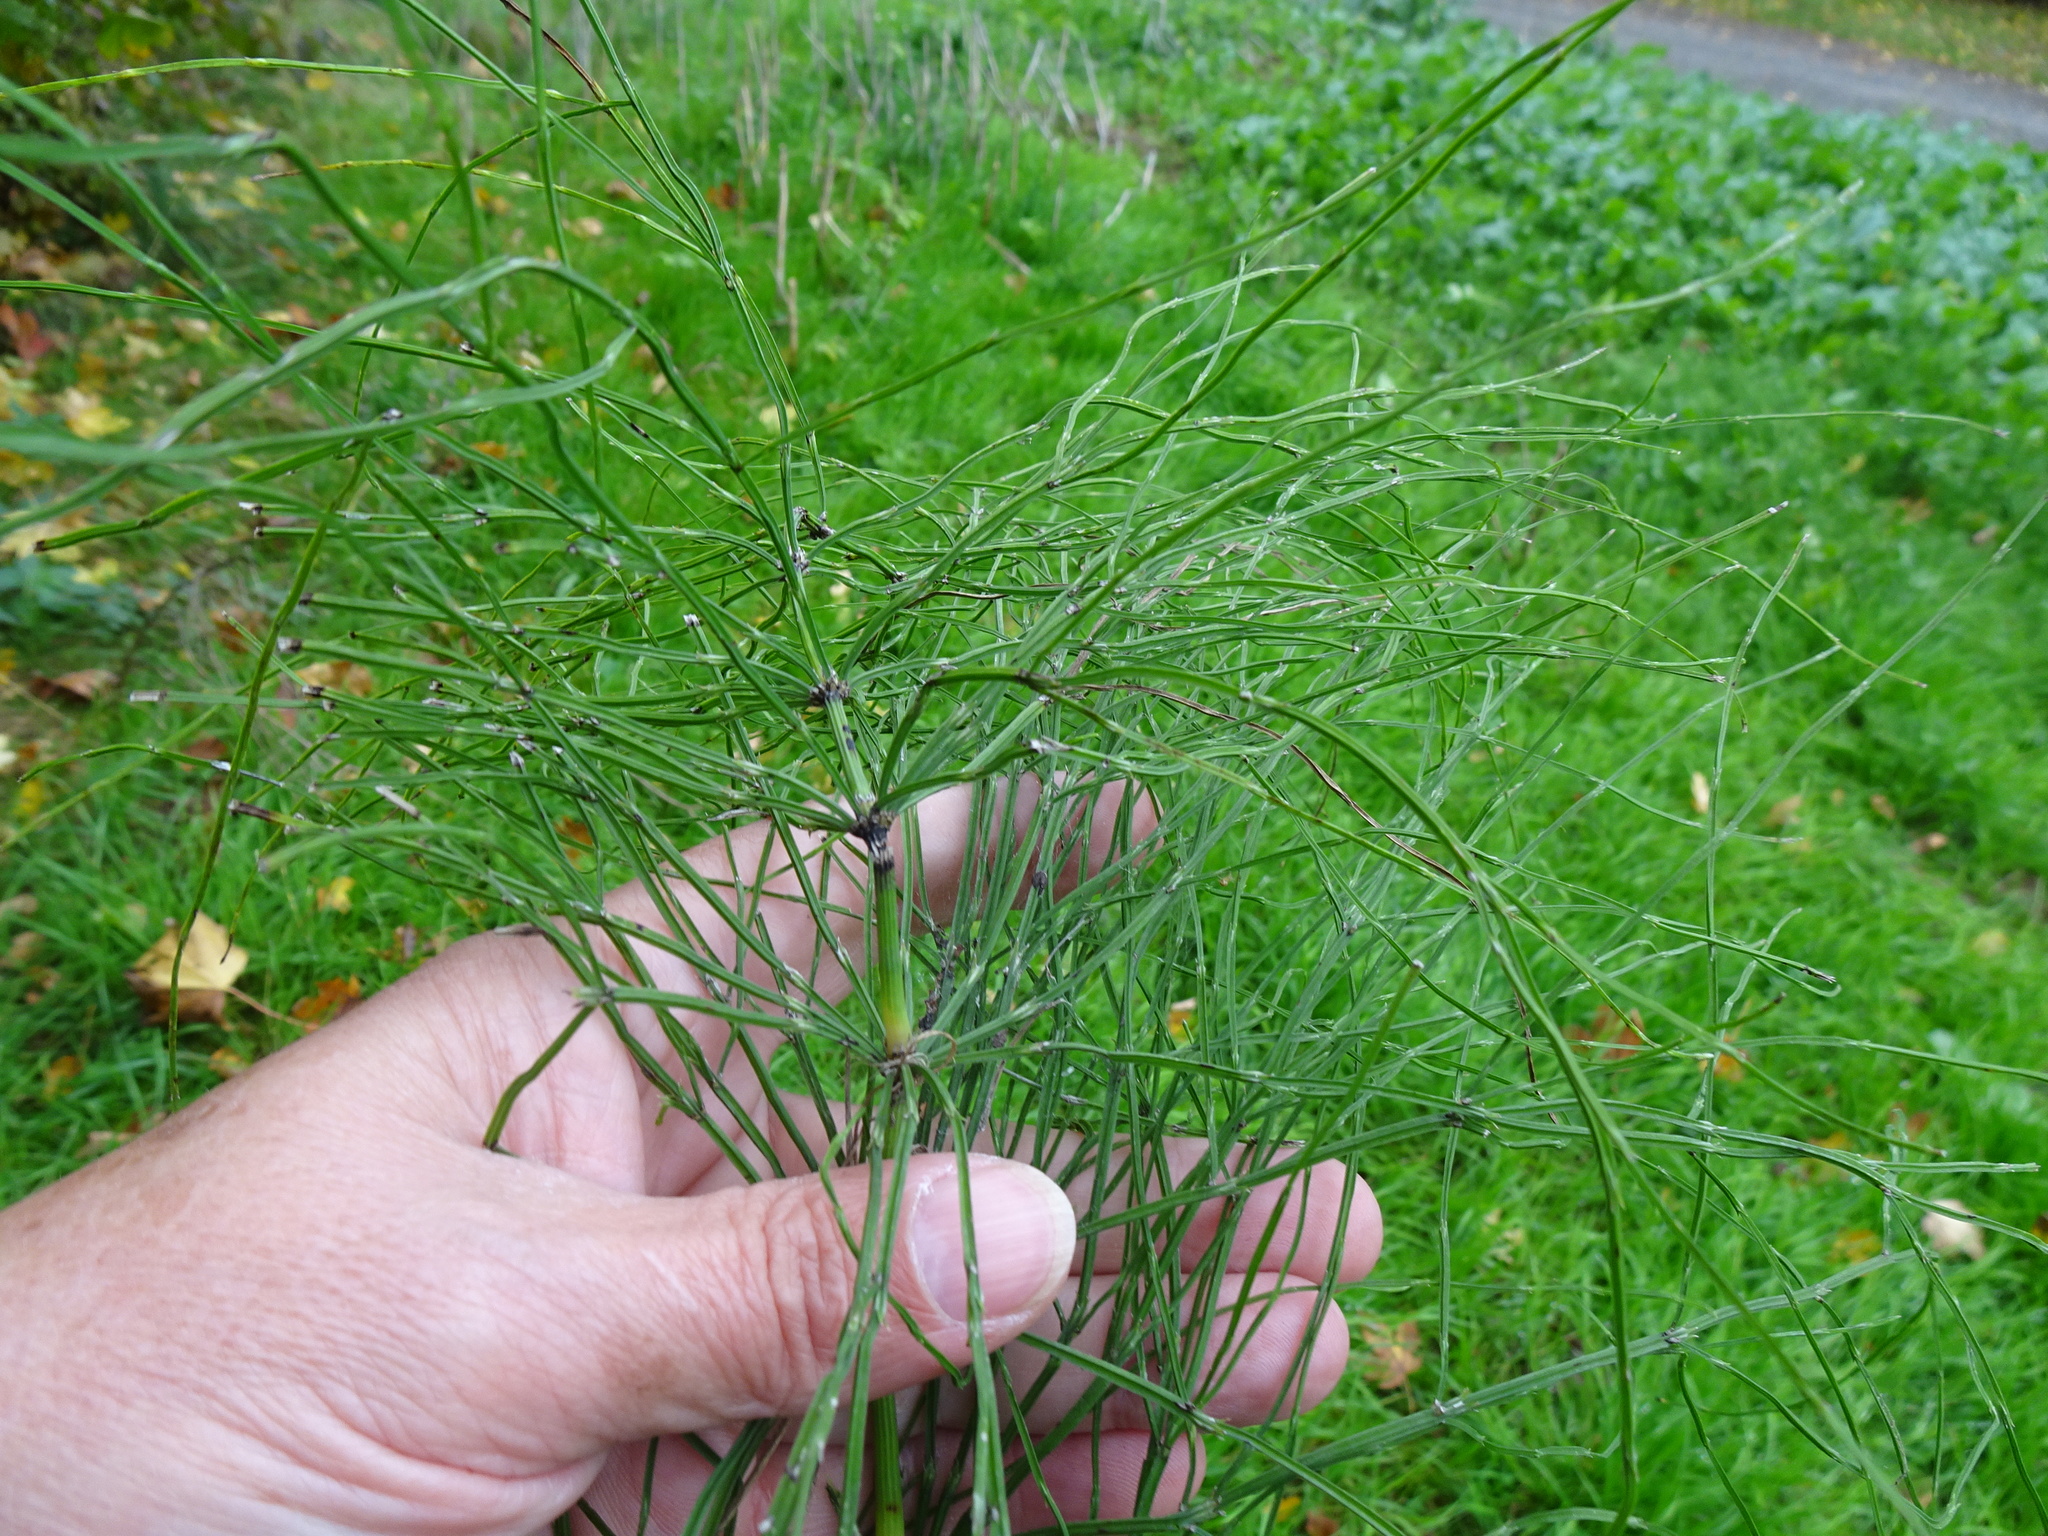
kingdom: Plantae
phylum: Tracheophyta
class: Polypodiopsida
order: Equisetales
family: Equisetaceae
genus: Equisetum
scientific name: Equisetum arvense
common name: Field horsetail
